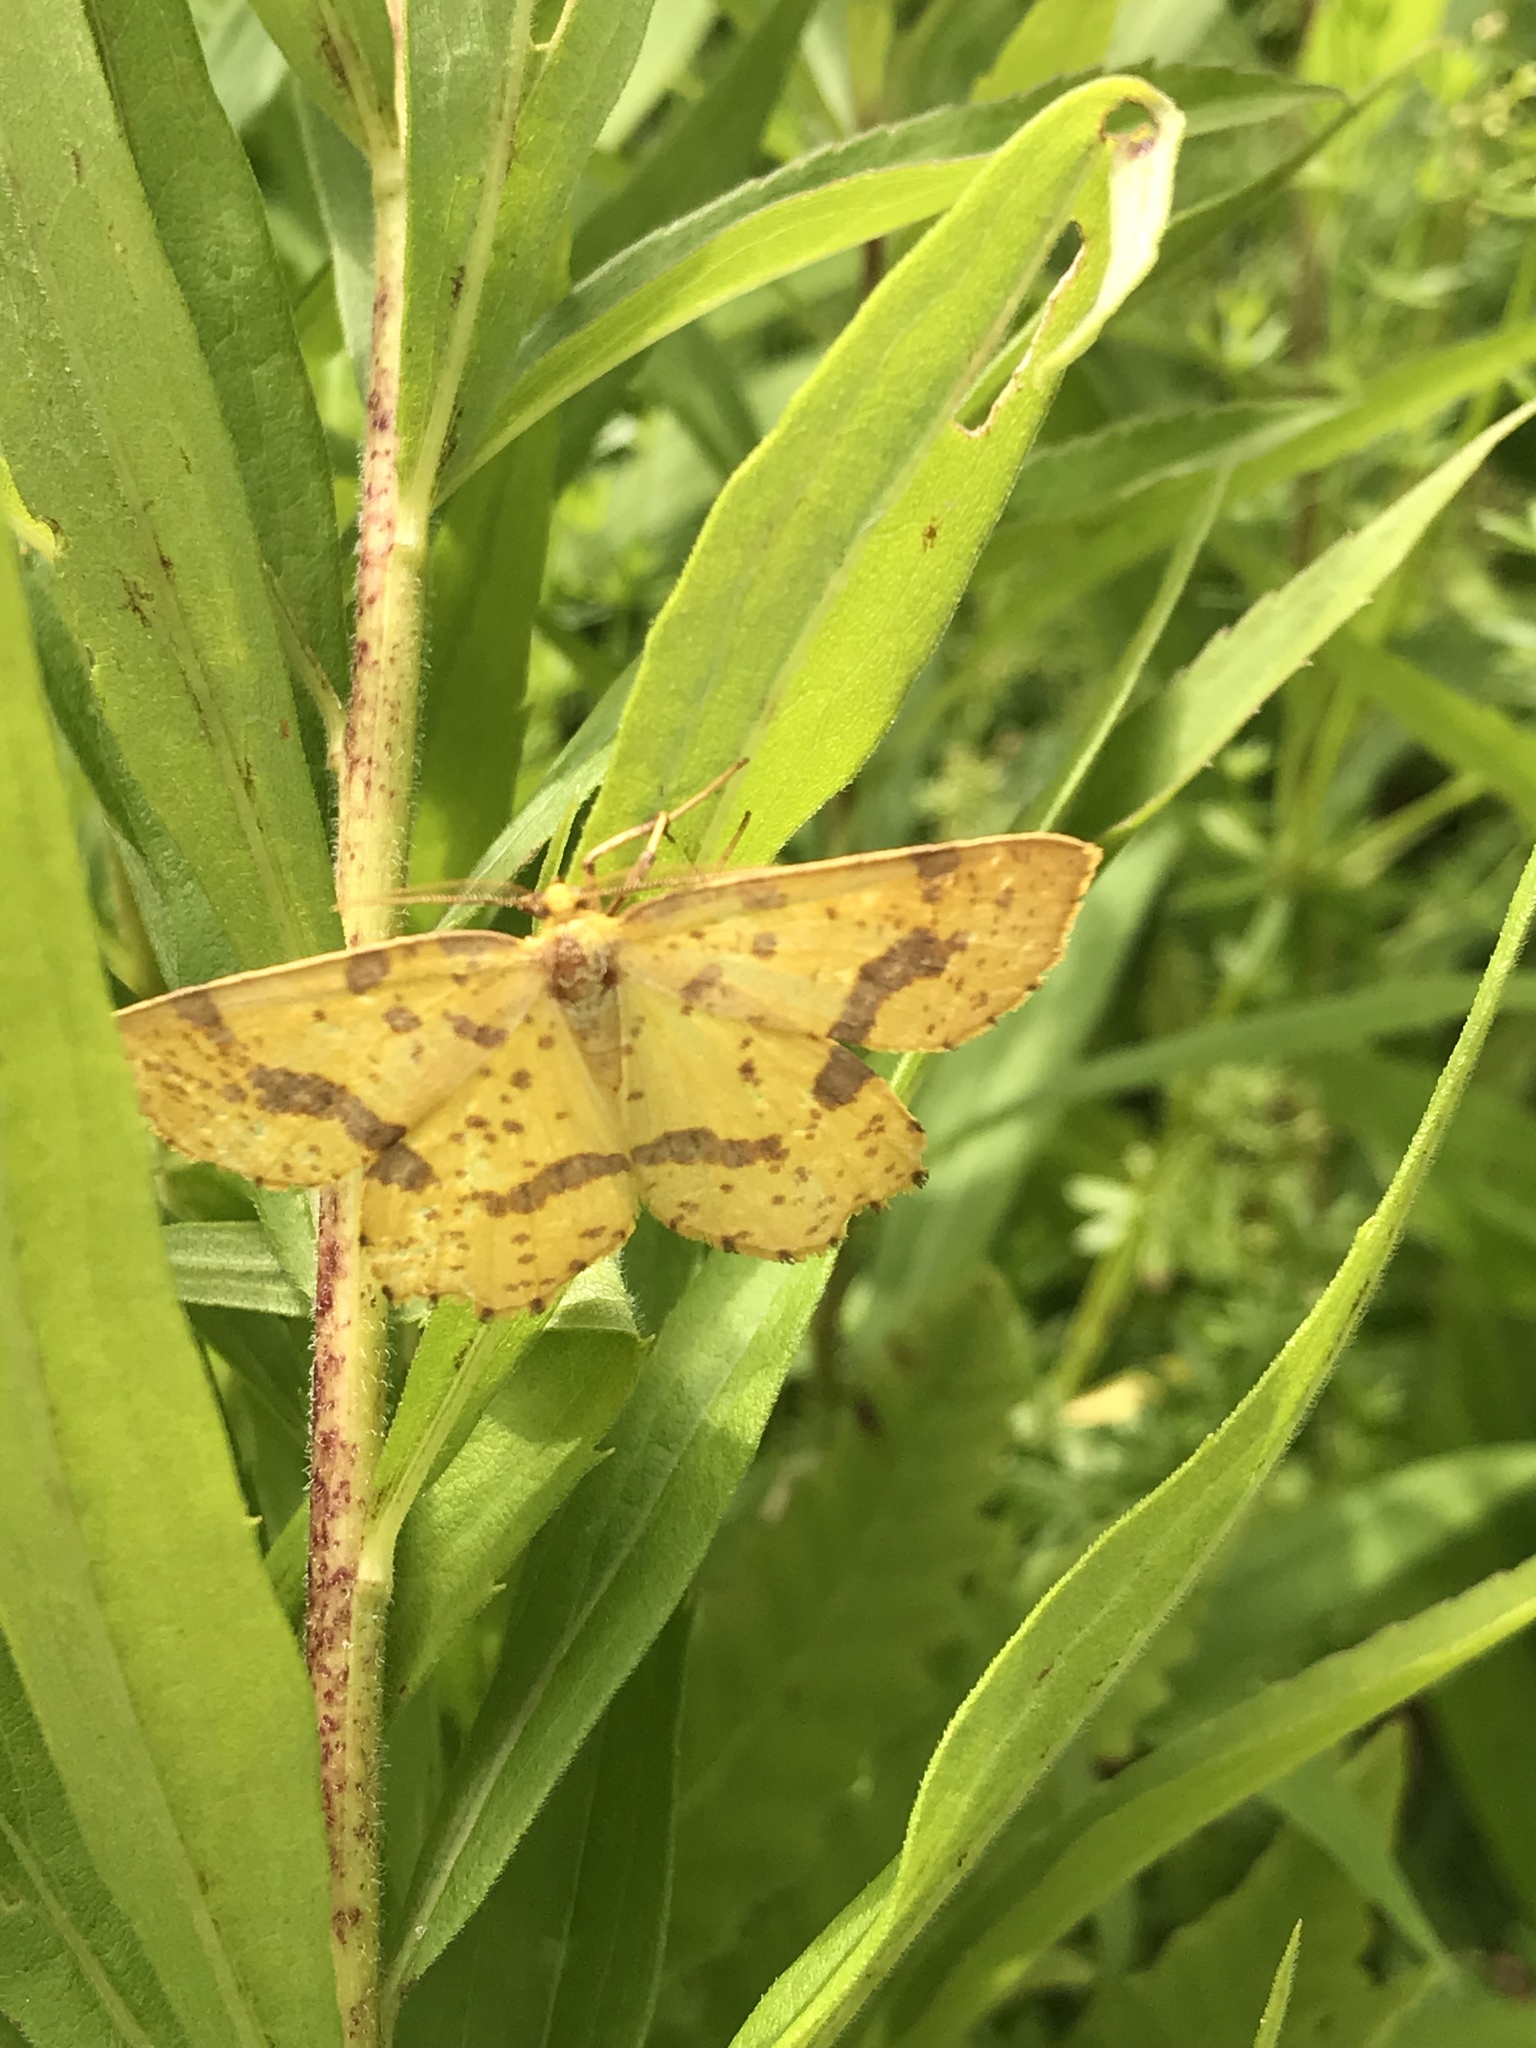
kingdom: Animalia
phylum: Arthropoda
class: Insecta
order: Lepidoptera
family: Geometridae
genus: Xanthotype
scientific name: Xanthotype
